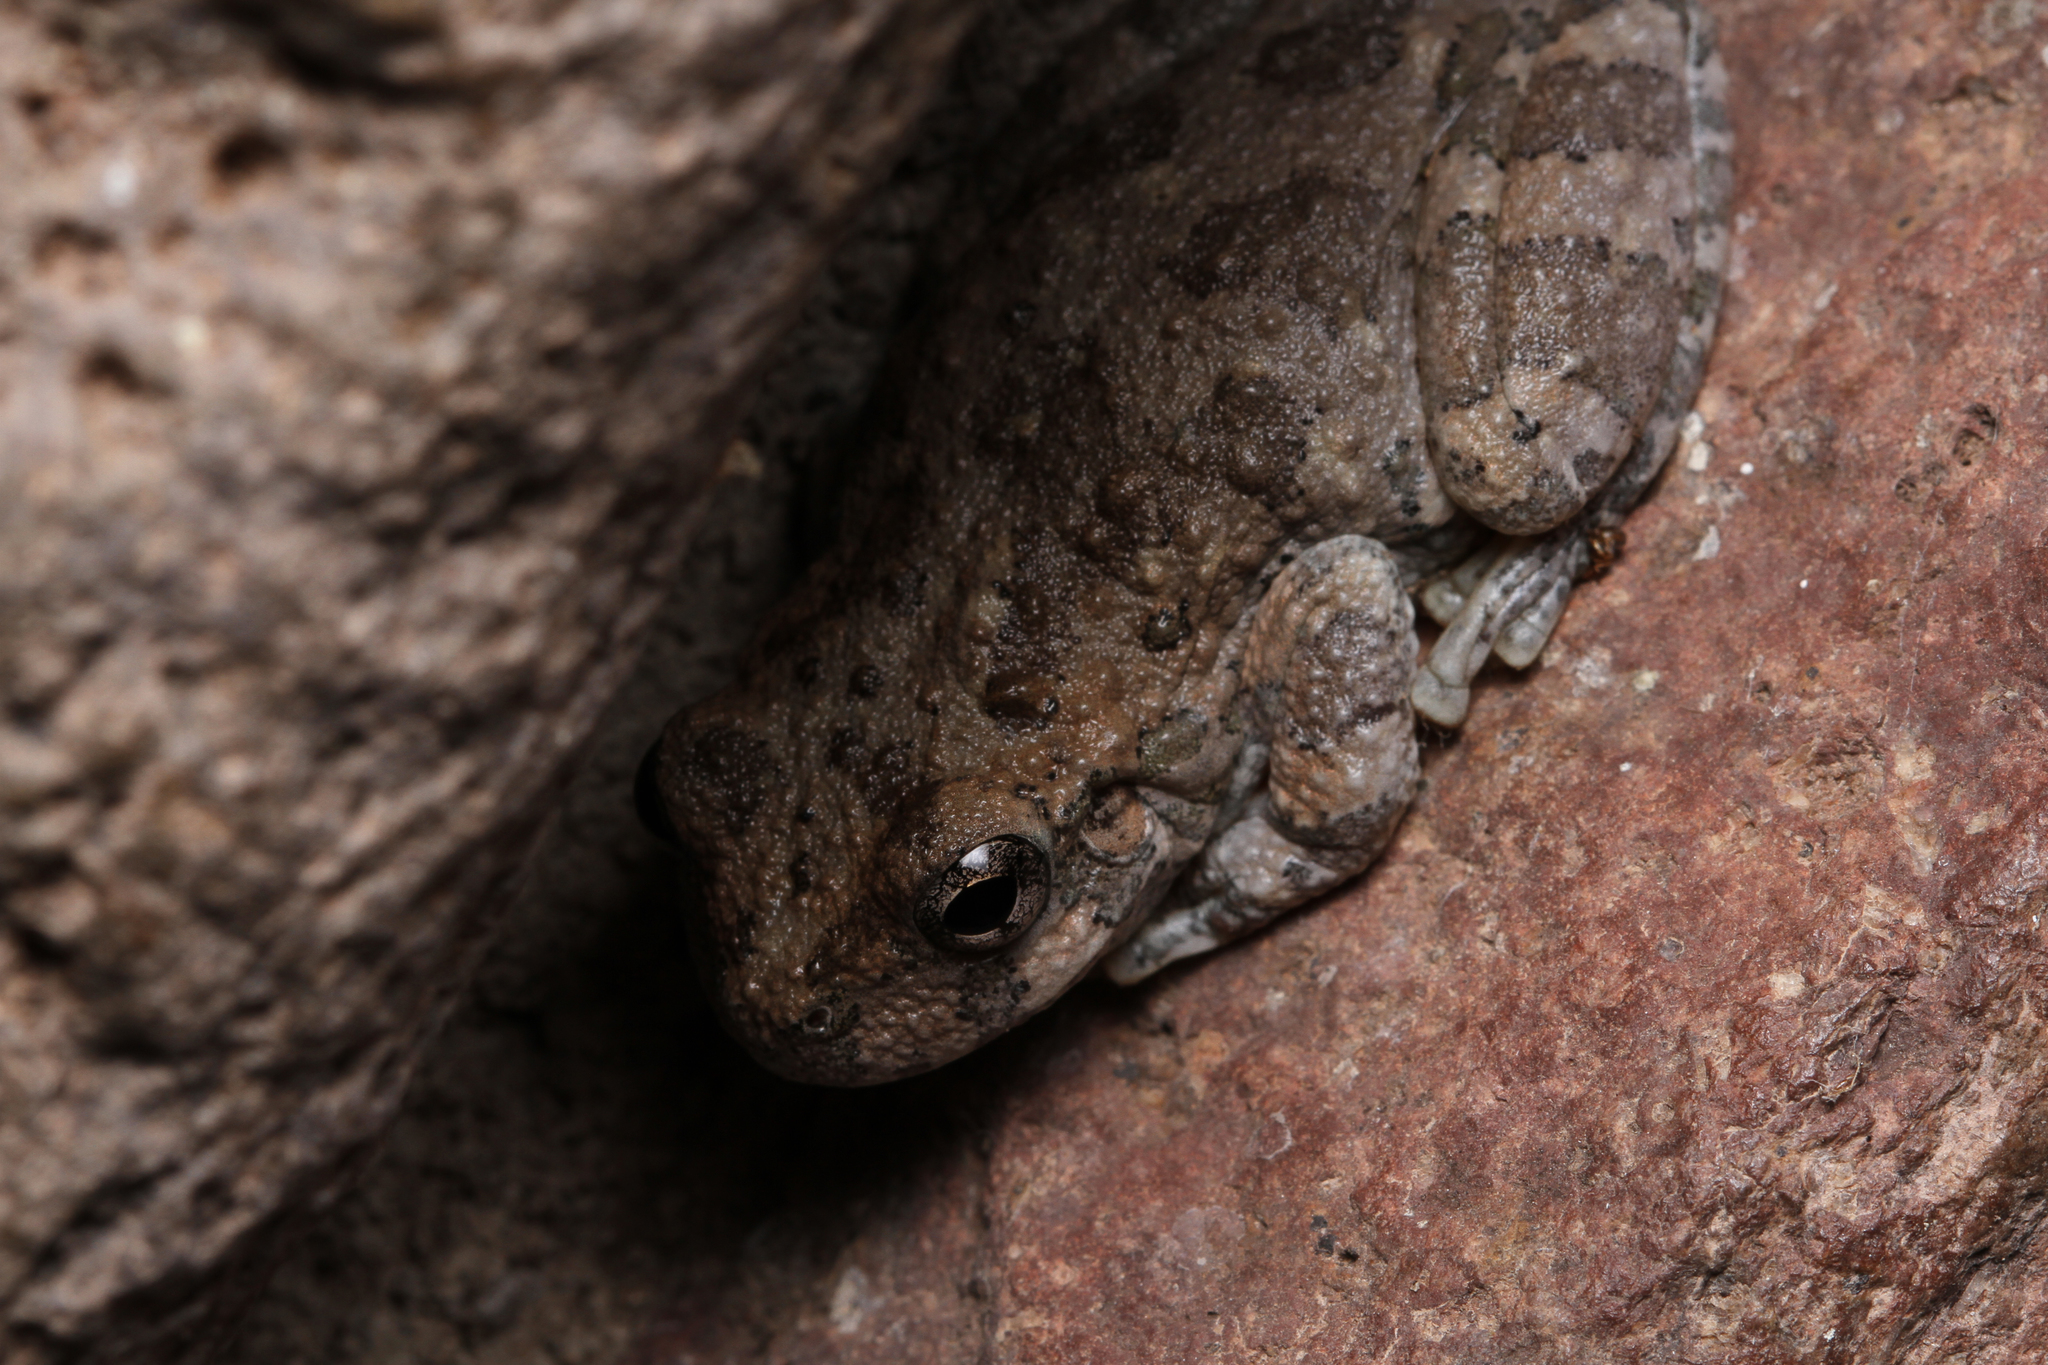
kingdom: Animalia
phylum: Chordata
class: Amphibia
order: Anura
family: Hylidae
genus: Dryophytes
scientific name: Dryophytes arenicolor
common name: Canyon treefrog
